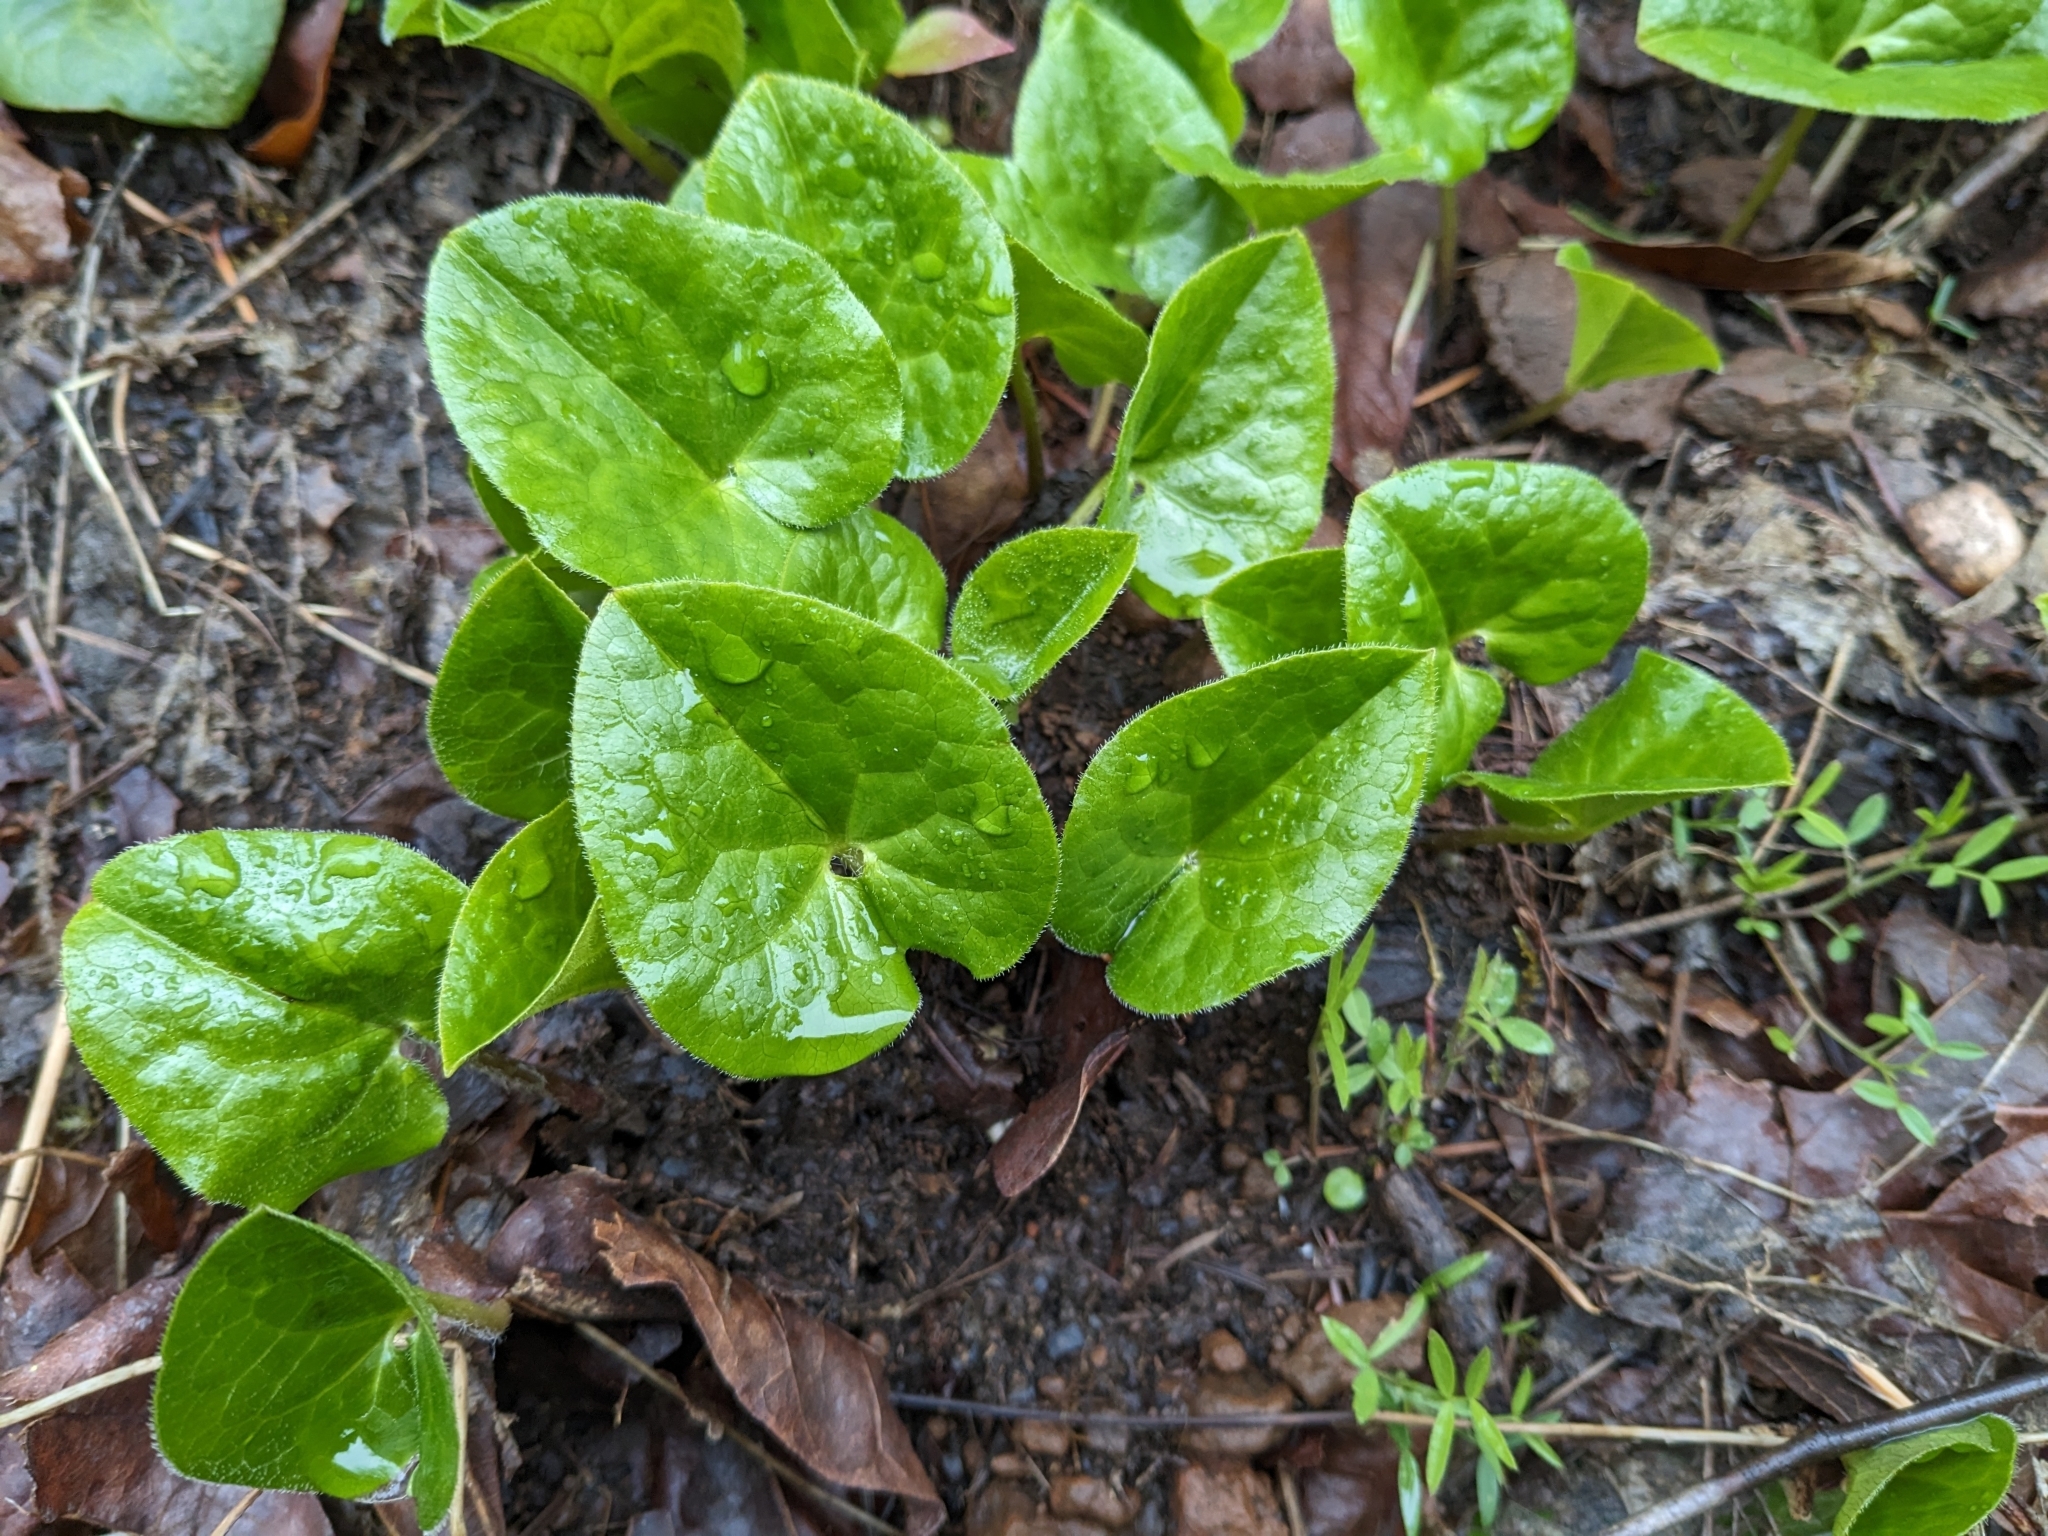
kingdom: Plantae
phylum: Tracheophyta
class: Magnoliopsida
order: Piperales
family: Aristolochiaceae
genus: Asarum
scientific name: Asarum caudatum
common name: Wild ginger
